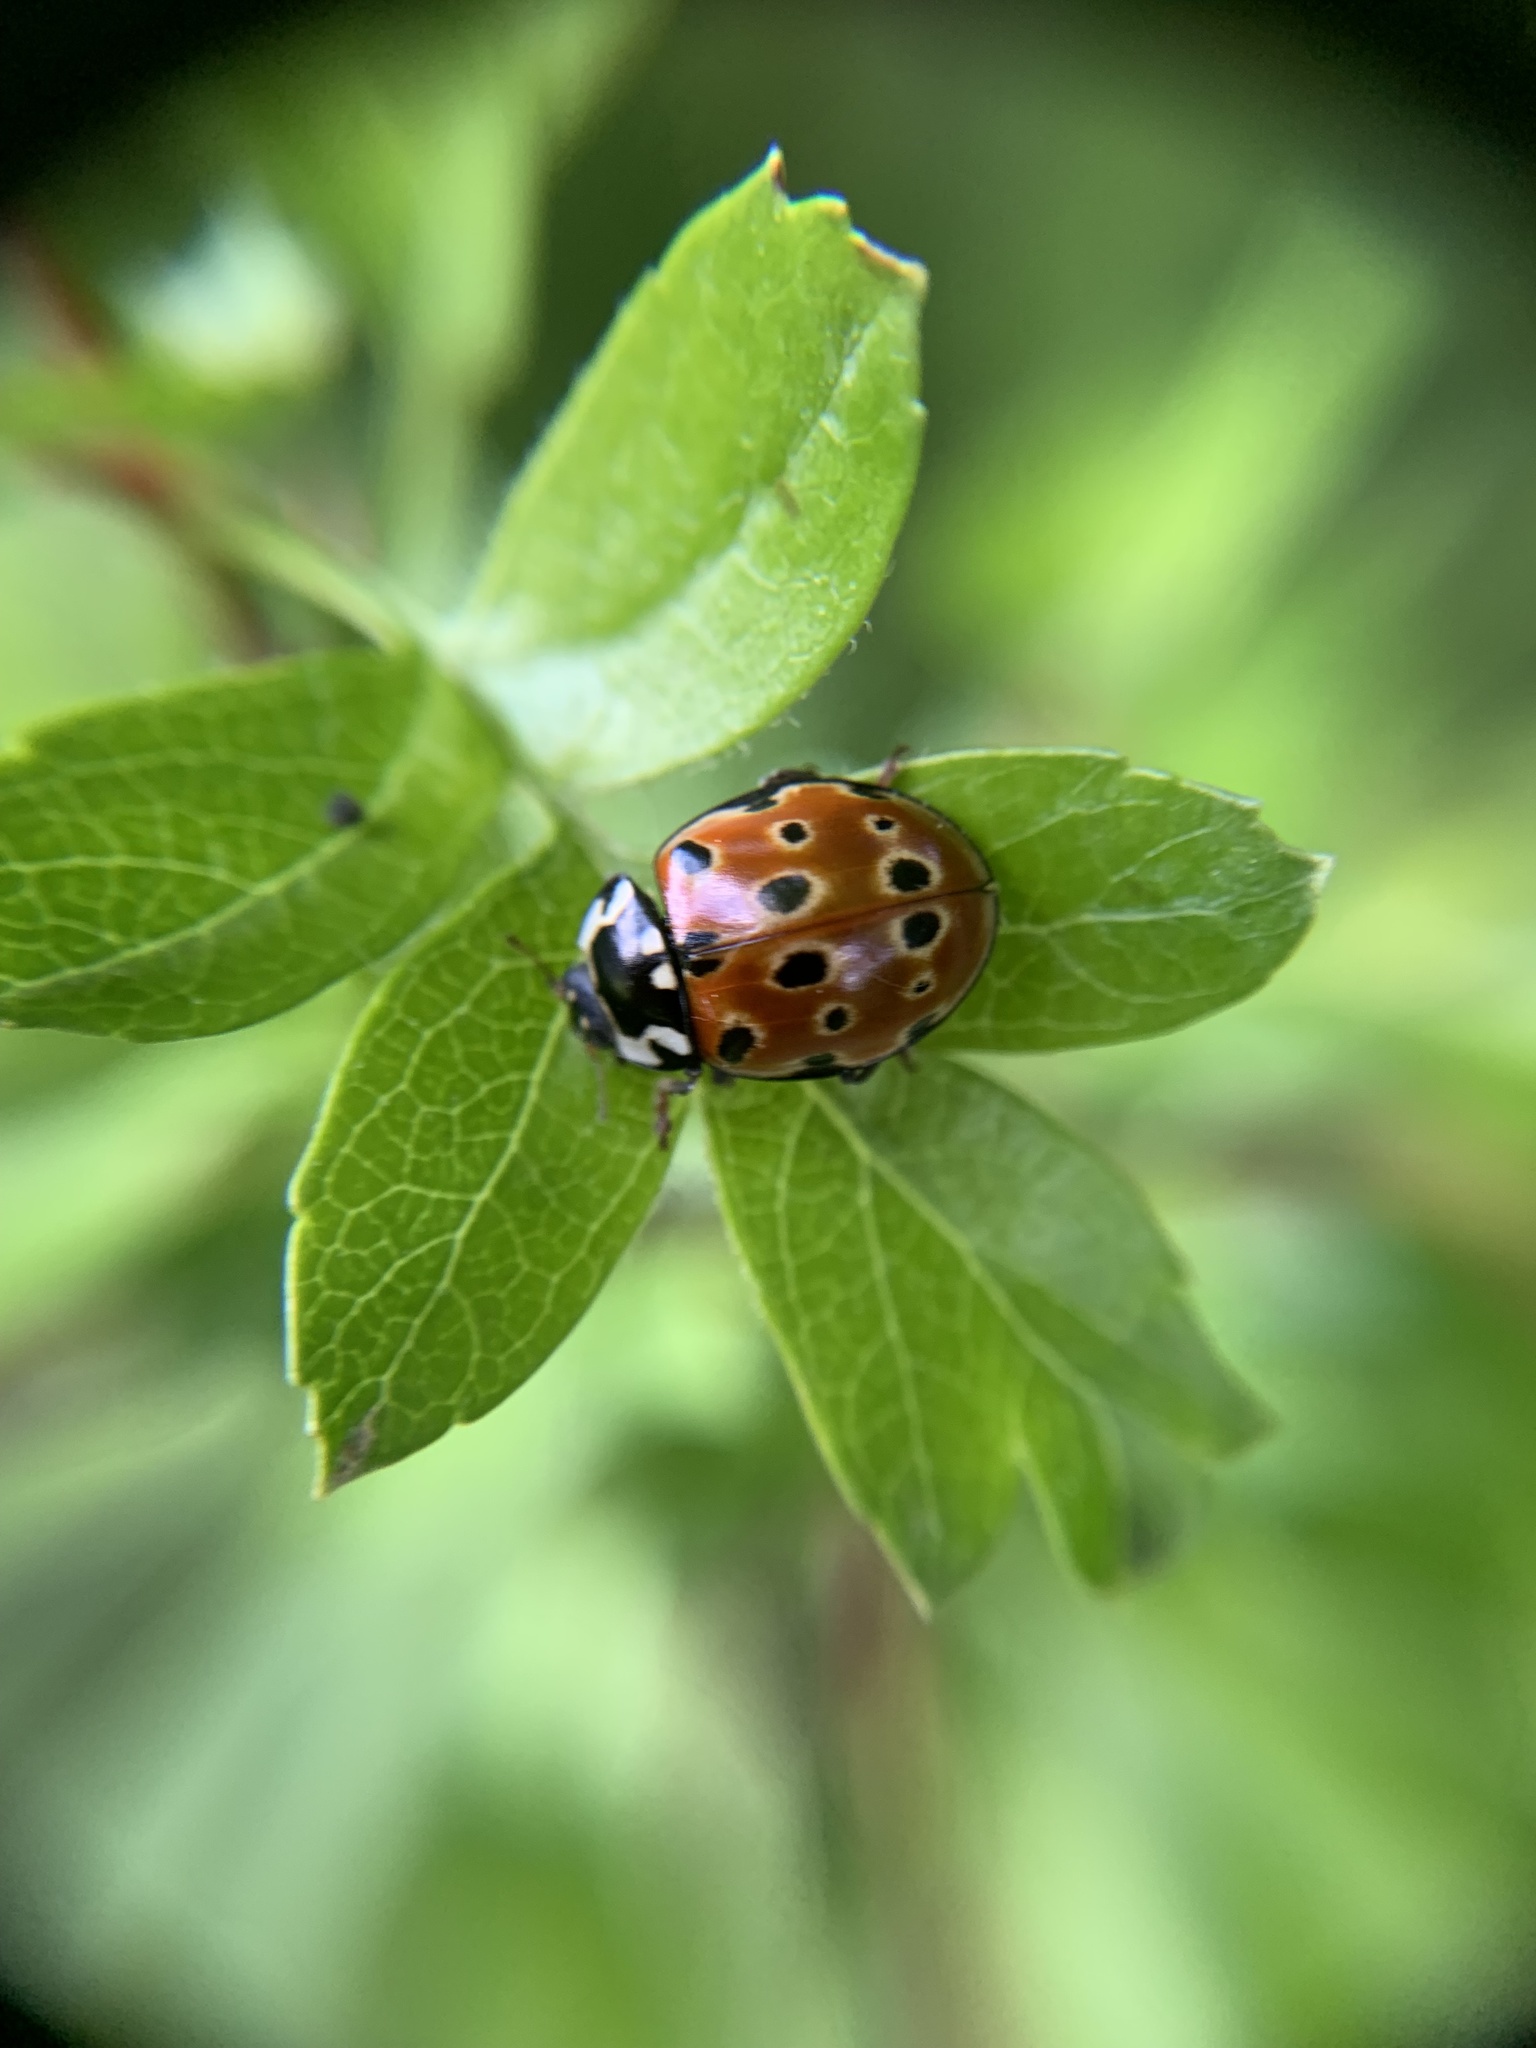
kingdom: Animalia
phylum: Arthropoda
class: Insecta
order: Coleoptera
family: Coccinellidae
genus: Anatis
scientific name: Anatis ocellata
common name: Eyed ladybird
